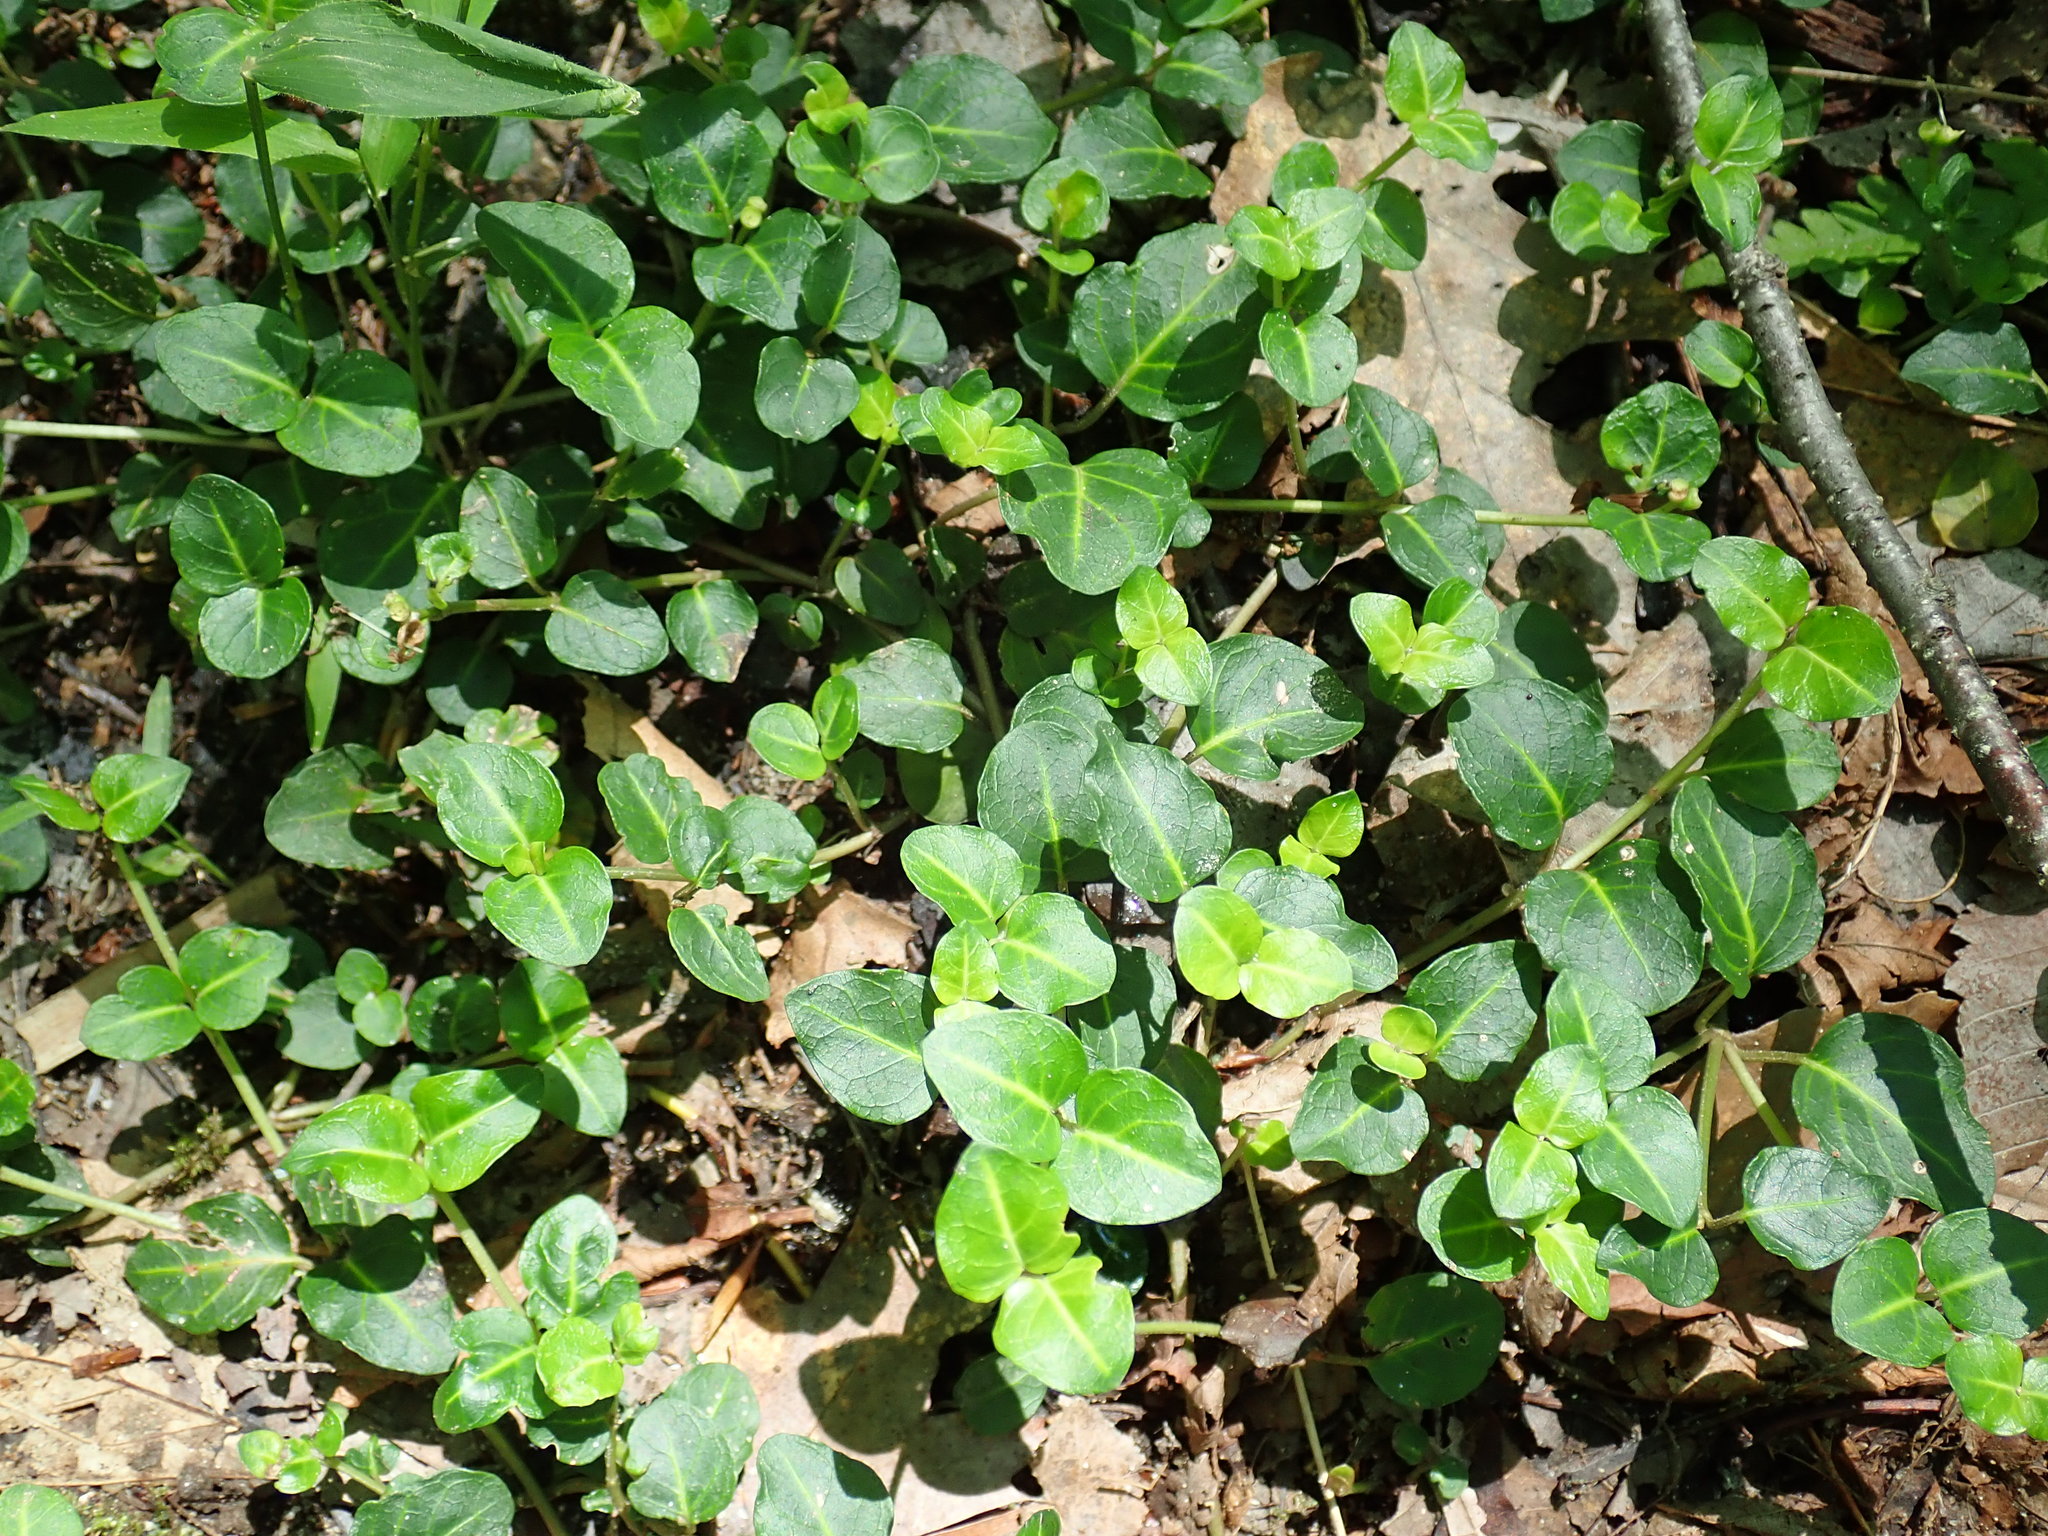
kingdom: Plantae
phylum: Tracheophyta
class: Magnoliopsida
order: Gentianales
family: Rubiaceae
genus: Mitchella
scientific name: Mitchella repens
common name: Partridge-berry
